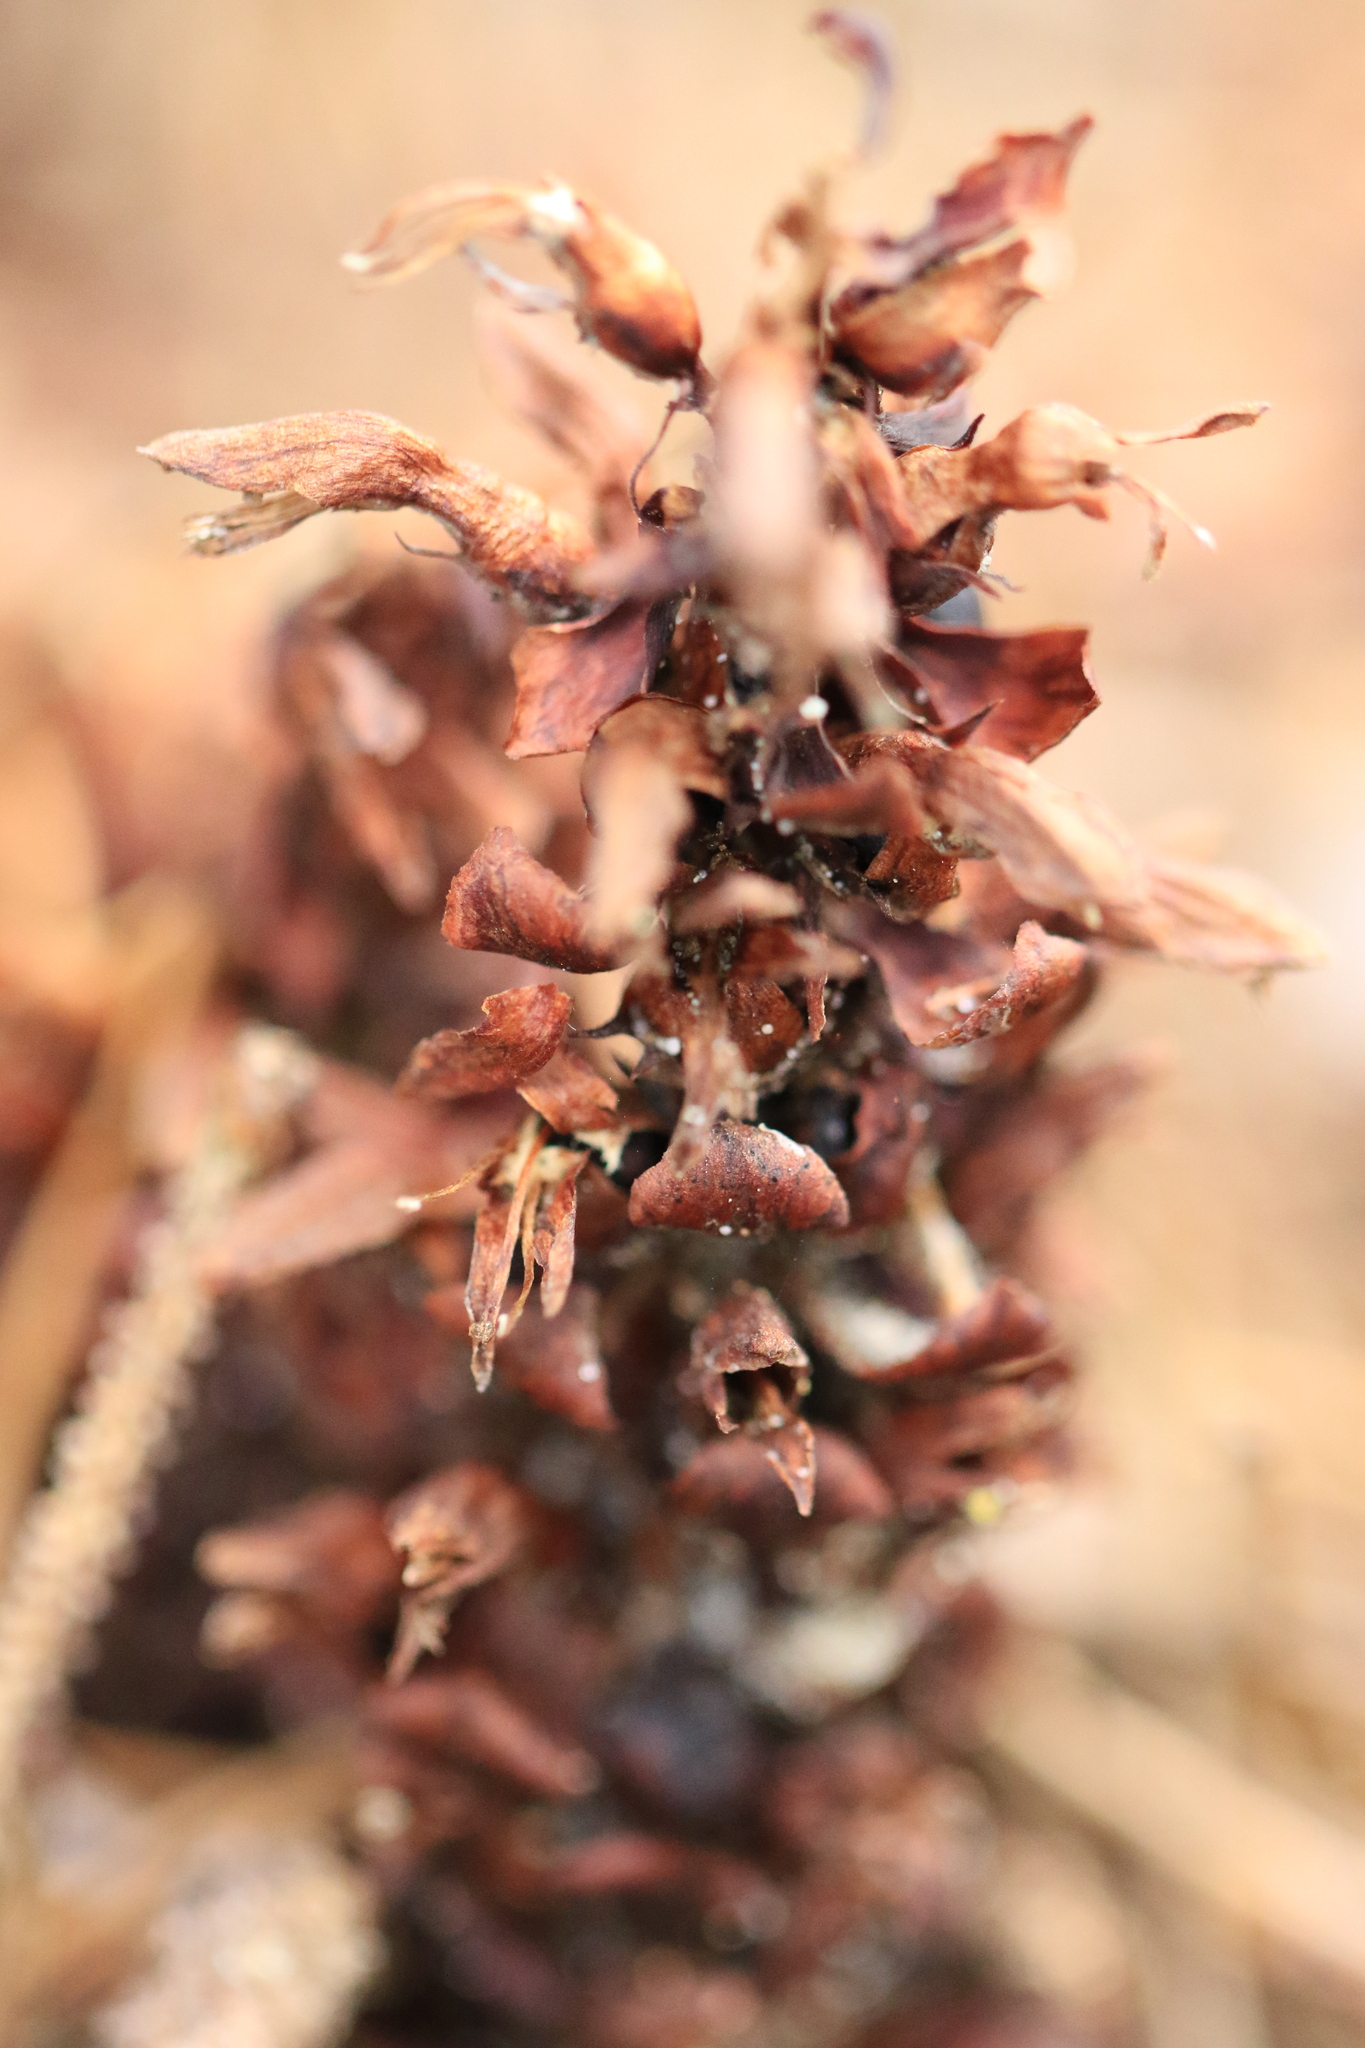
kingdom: Plantae
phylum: Tracheophyta
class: Magnoliopsida
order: Lamiales
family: Orobanchaceae
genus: Kopsiopsis
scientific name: Kopsiopsis hookeri
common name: Hooker's groundcone
